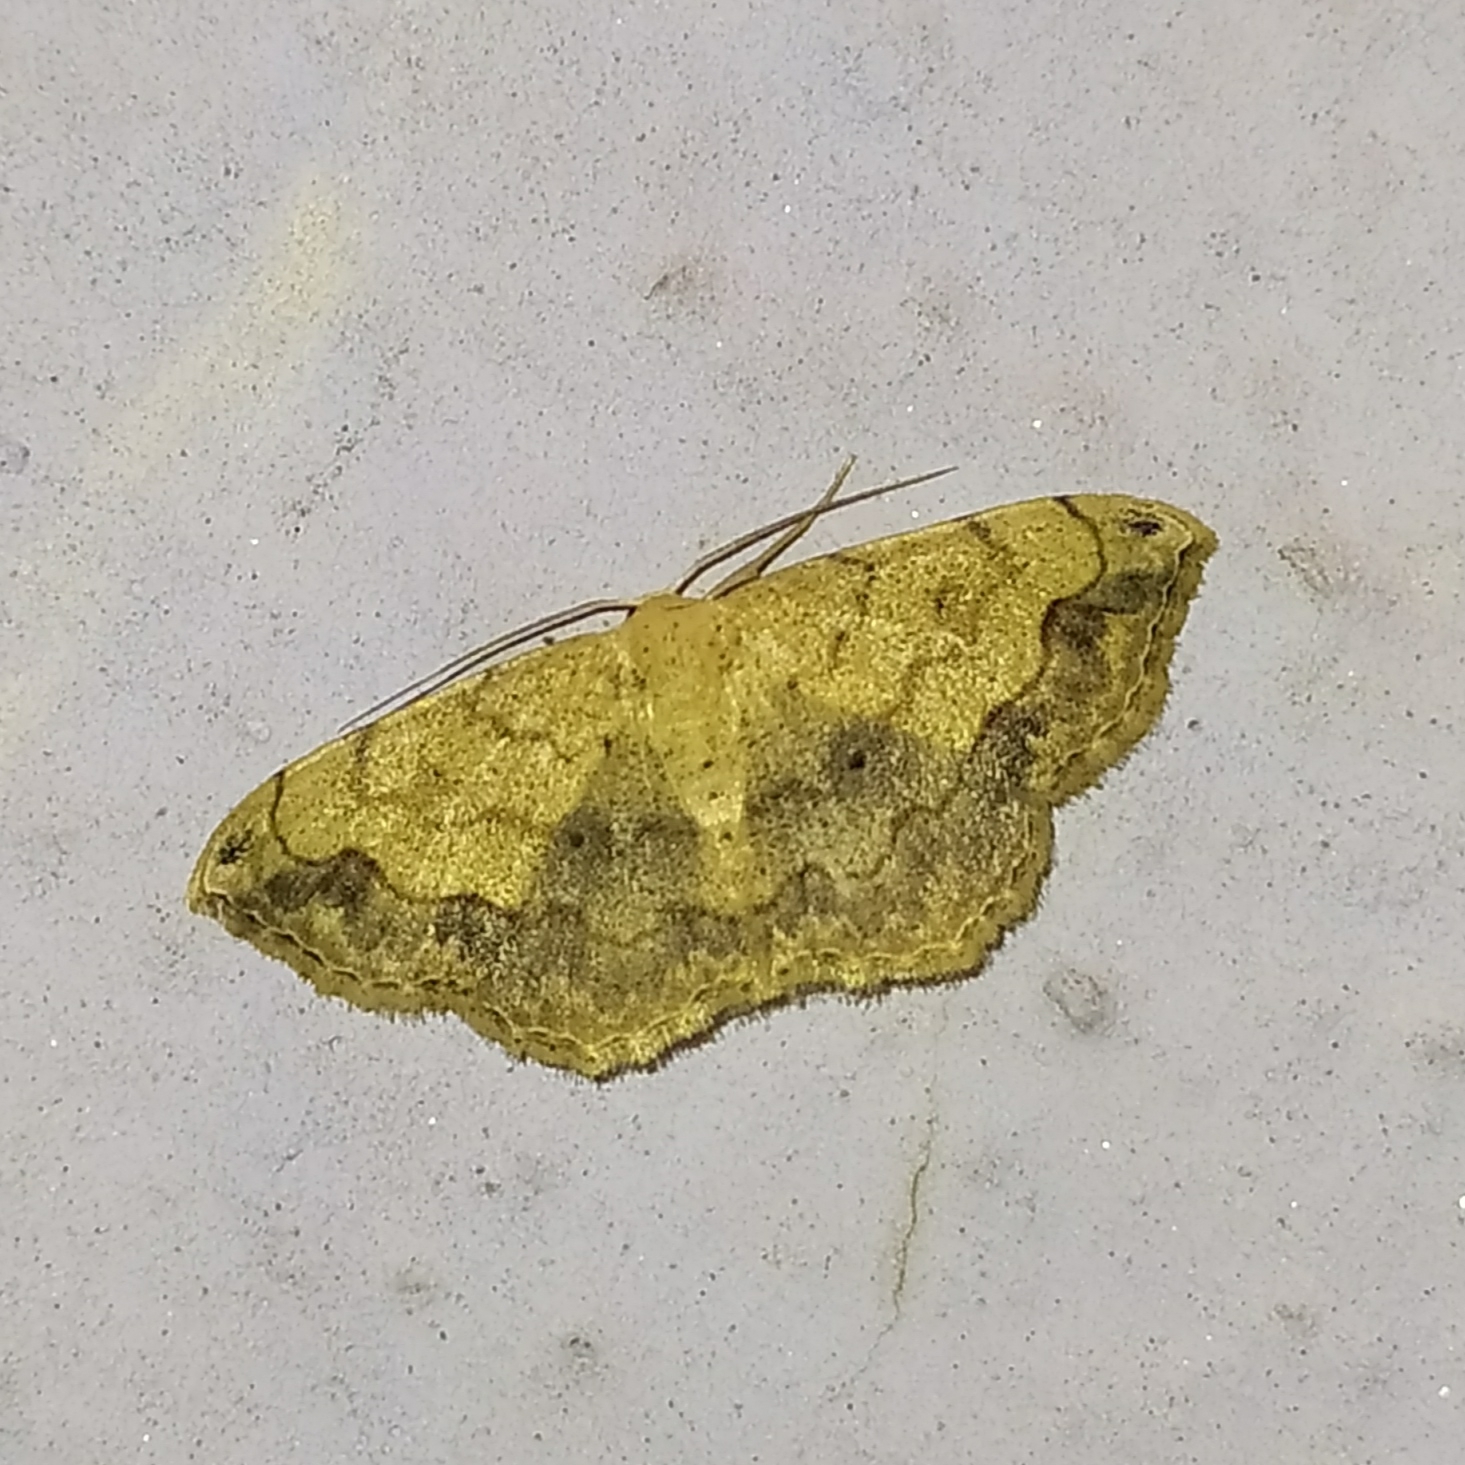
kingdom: Animalia
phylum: Arthropoda
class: Insecta
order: Lepidoptera
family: Geometridae
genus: Scopula
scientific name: Scopula addictaria
